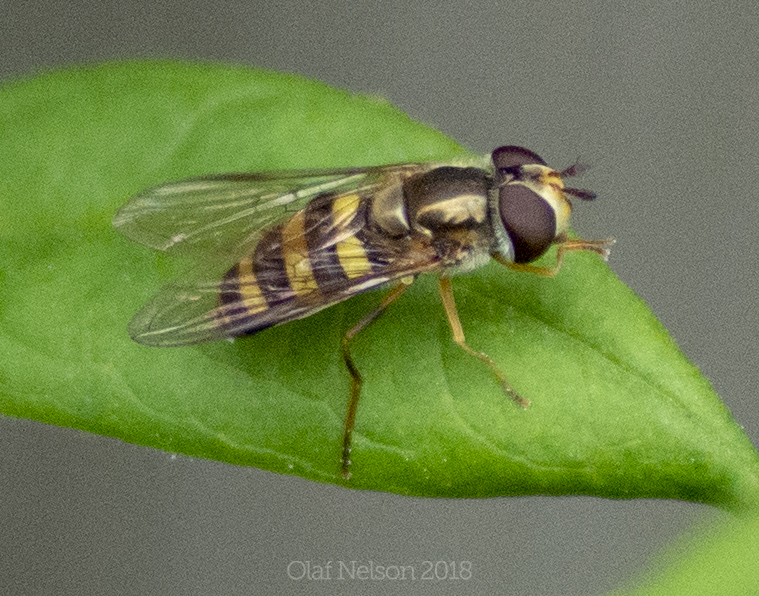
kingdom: Animalia
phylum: Arthropoda
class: Insecta
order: Diptera
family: Syrphidae
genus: Eupeodes
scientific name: Eupeodes
